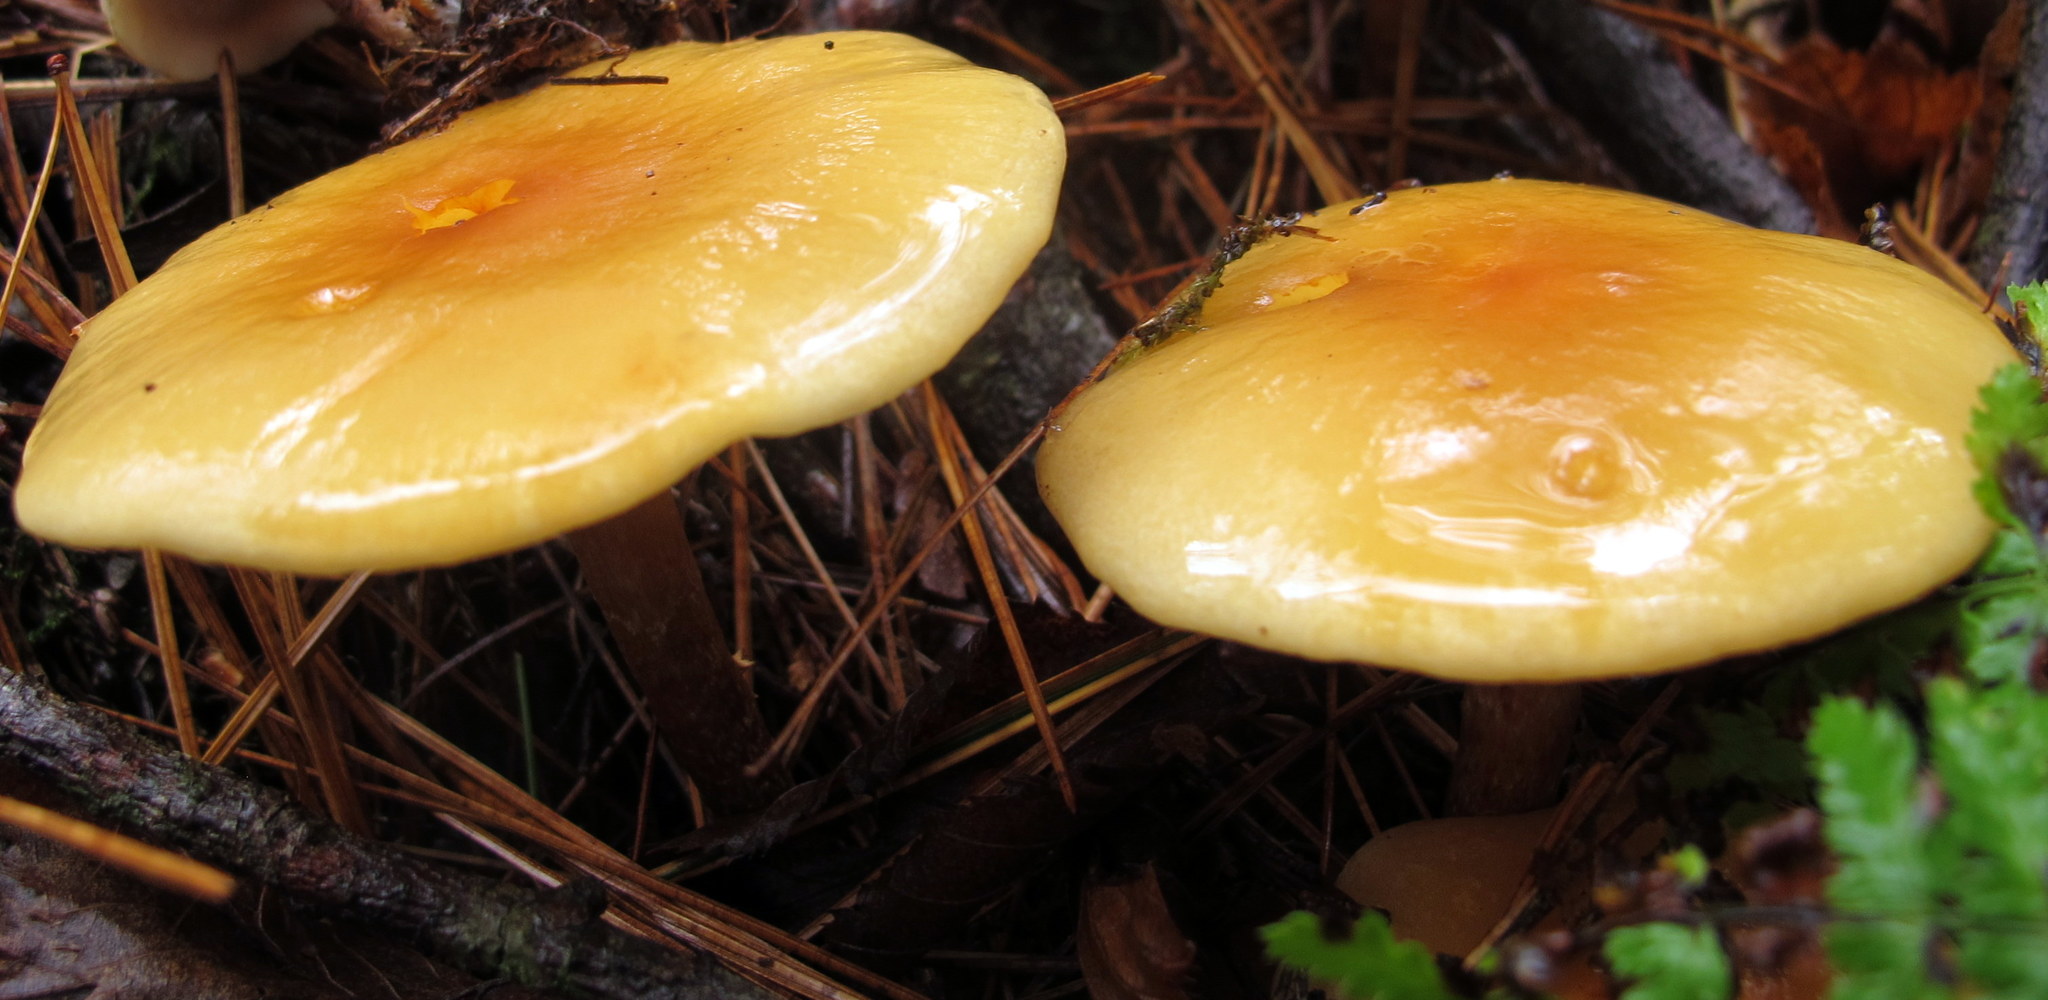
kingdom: Fungi
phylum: Basidiomycota
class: Agaricomycetes
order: Agaricales
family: Strophariaceae
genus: Hypholoma
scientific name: Hypholoma capnoides
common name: Conifer tuft
